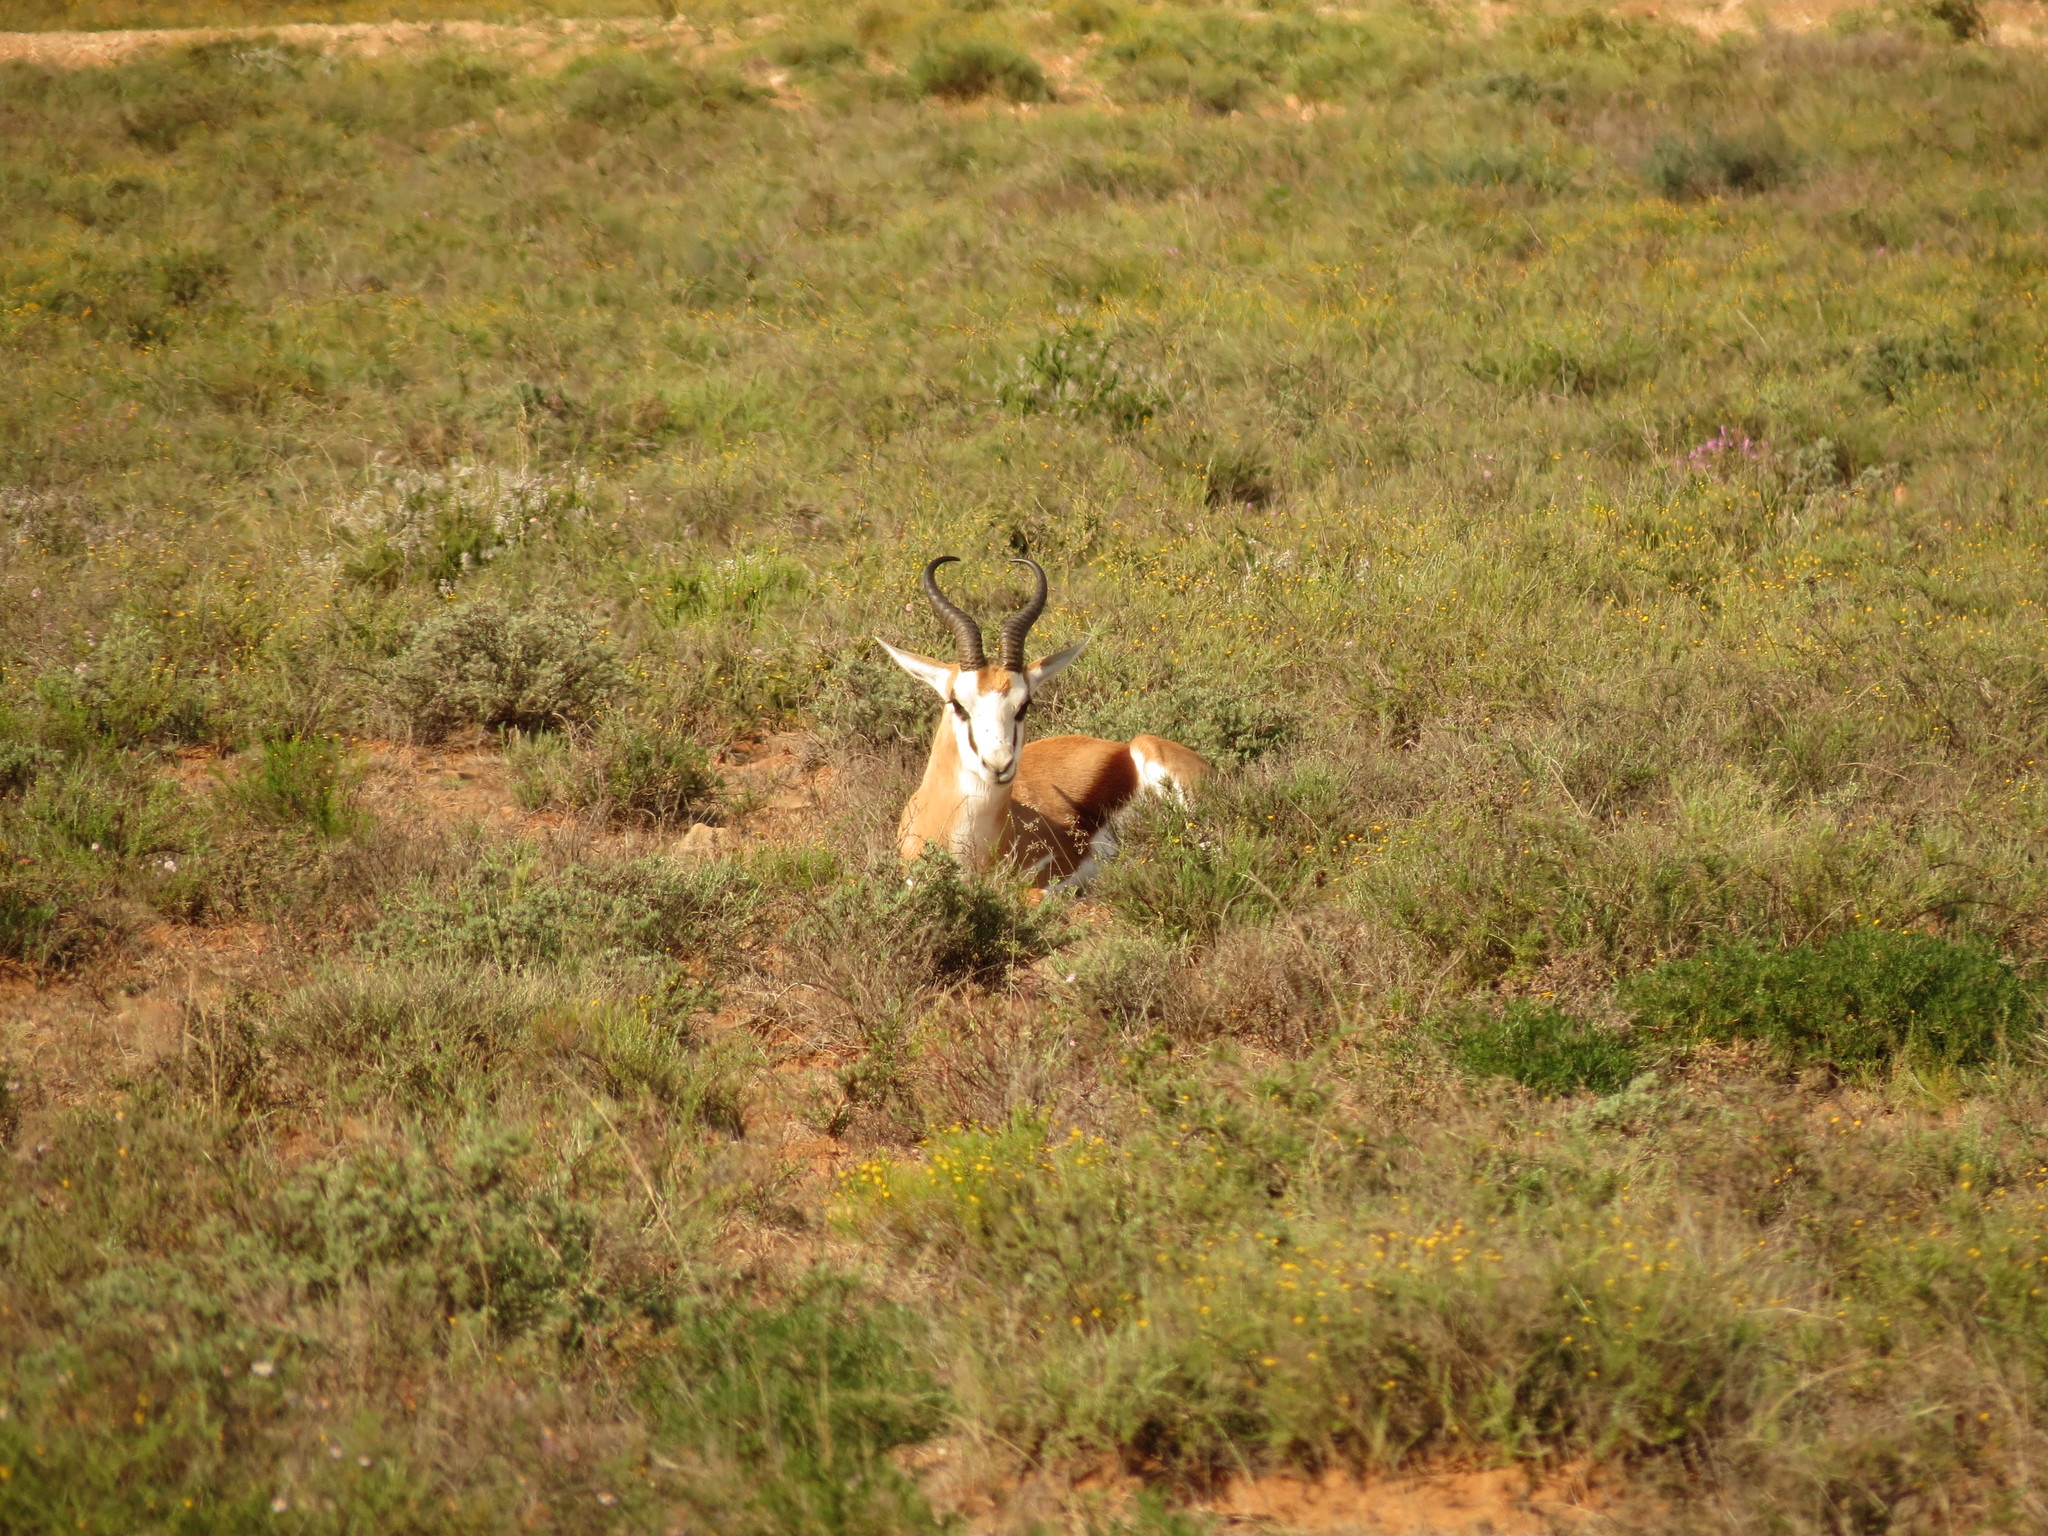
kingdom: Animalia
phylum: Chordata
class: Mammalia
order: Artiodactyla
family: Bovidae
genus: Antidorcas
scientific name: Antidorcas marsupialis
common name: Springbok
